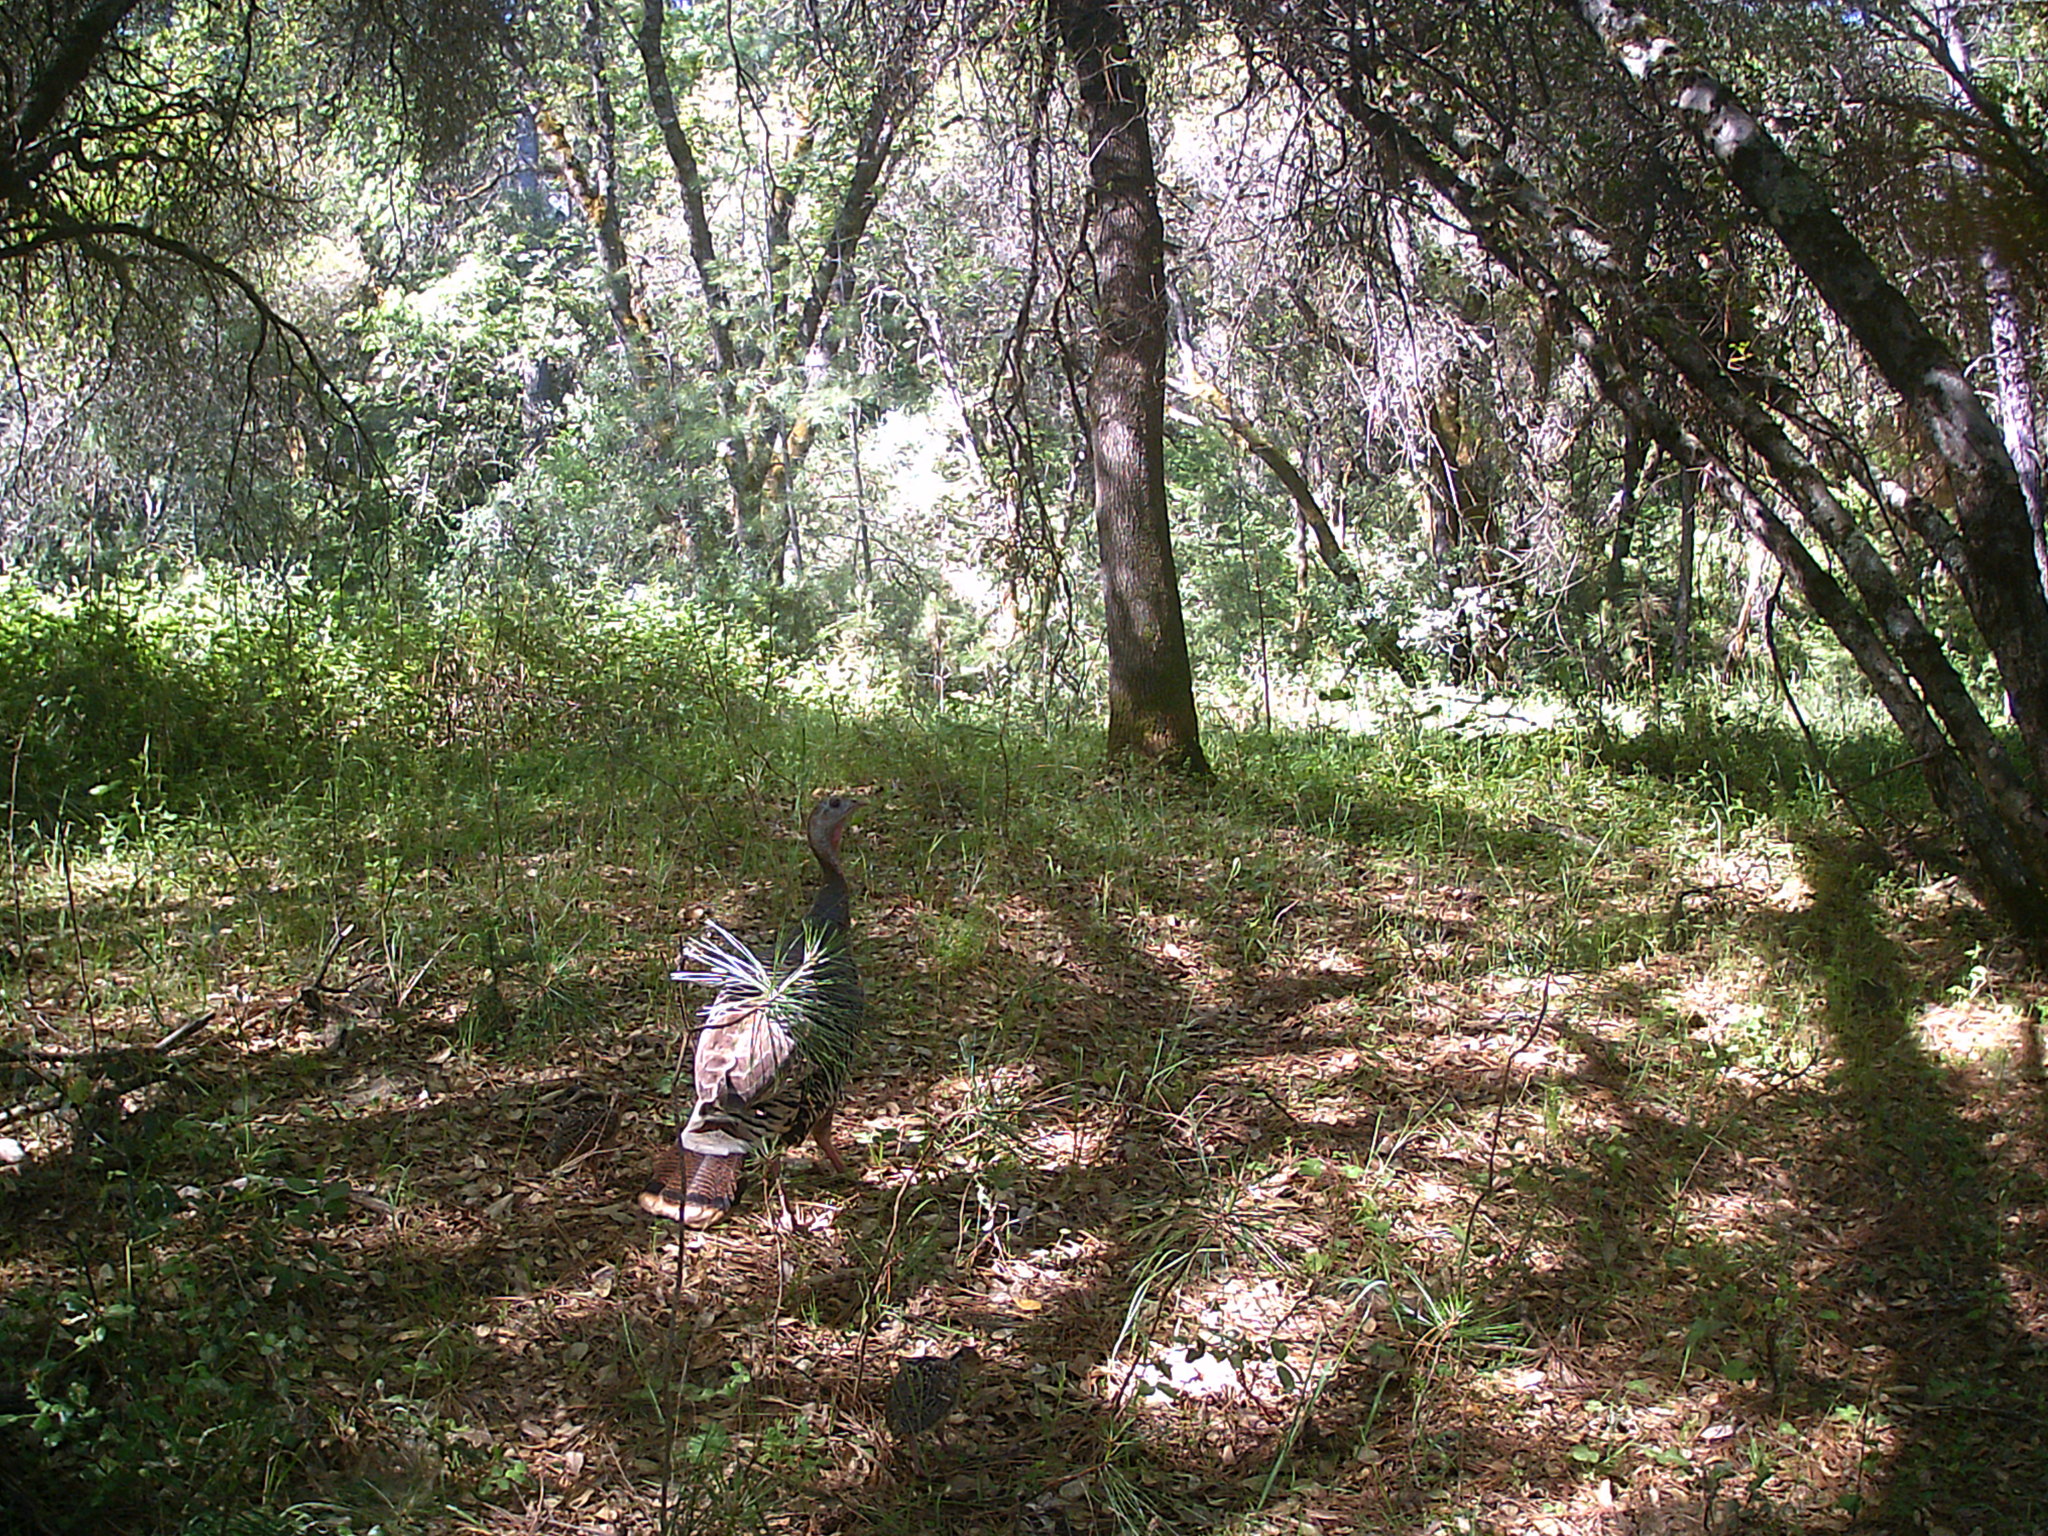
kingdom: Animalia
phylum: Chordata
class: Aves
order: Galliformes
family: Phasianidae
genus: Meleagris
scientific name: Meleagris gallopavo
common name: Wild turkey
